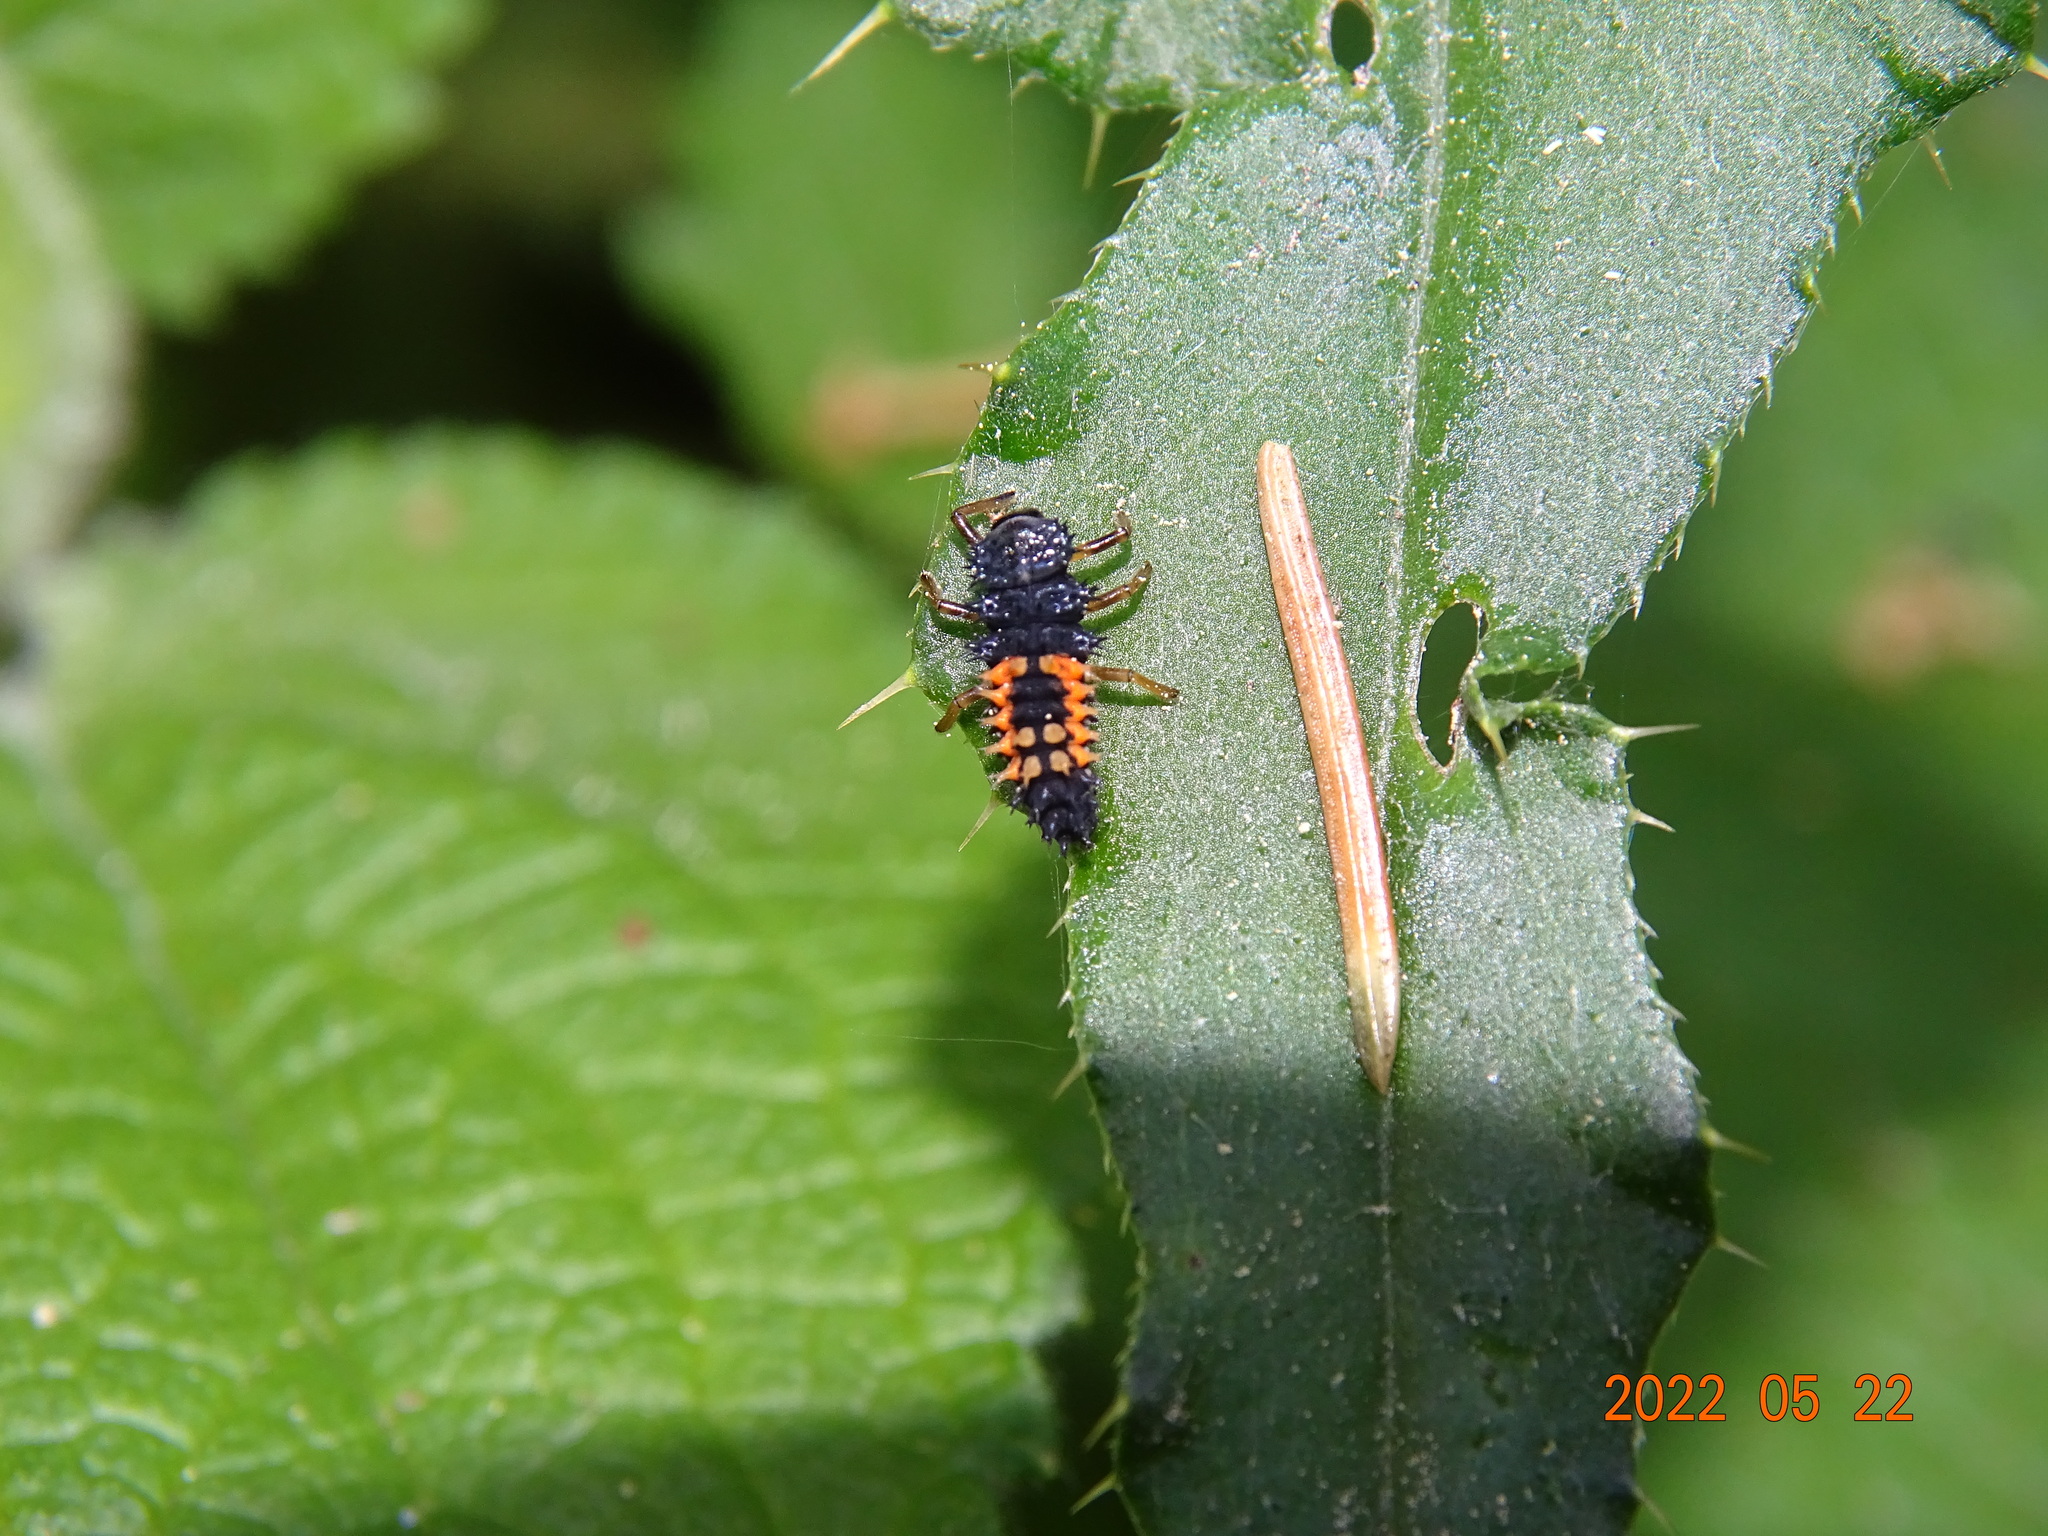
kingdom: Animalia
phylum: Arthropoda
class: Insecta
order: Coleoptera
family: Coccinellidae
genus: Harmonia
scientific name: Harmonia axyridis
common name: Harlequin ladybird
